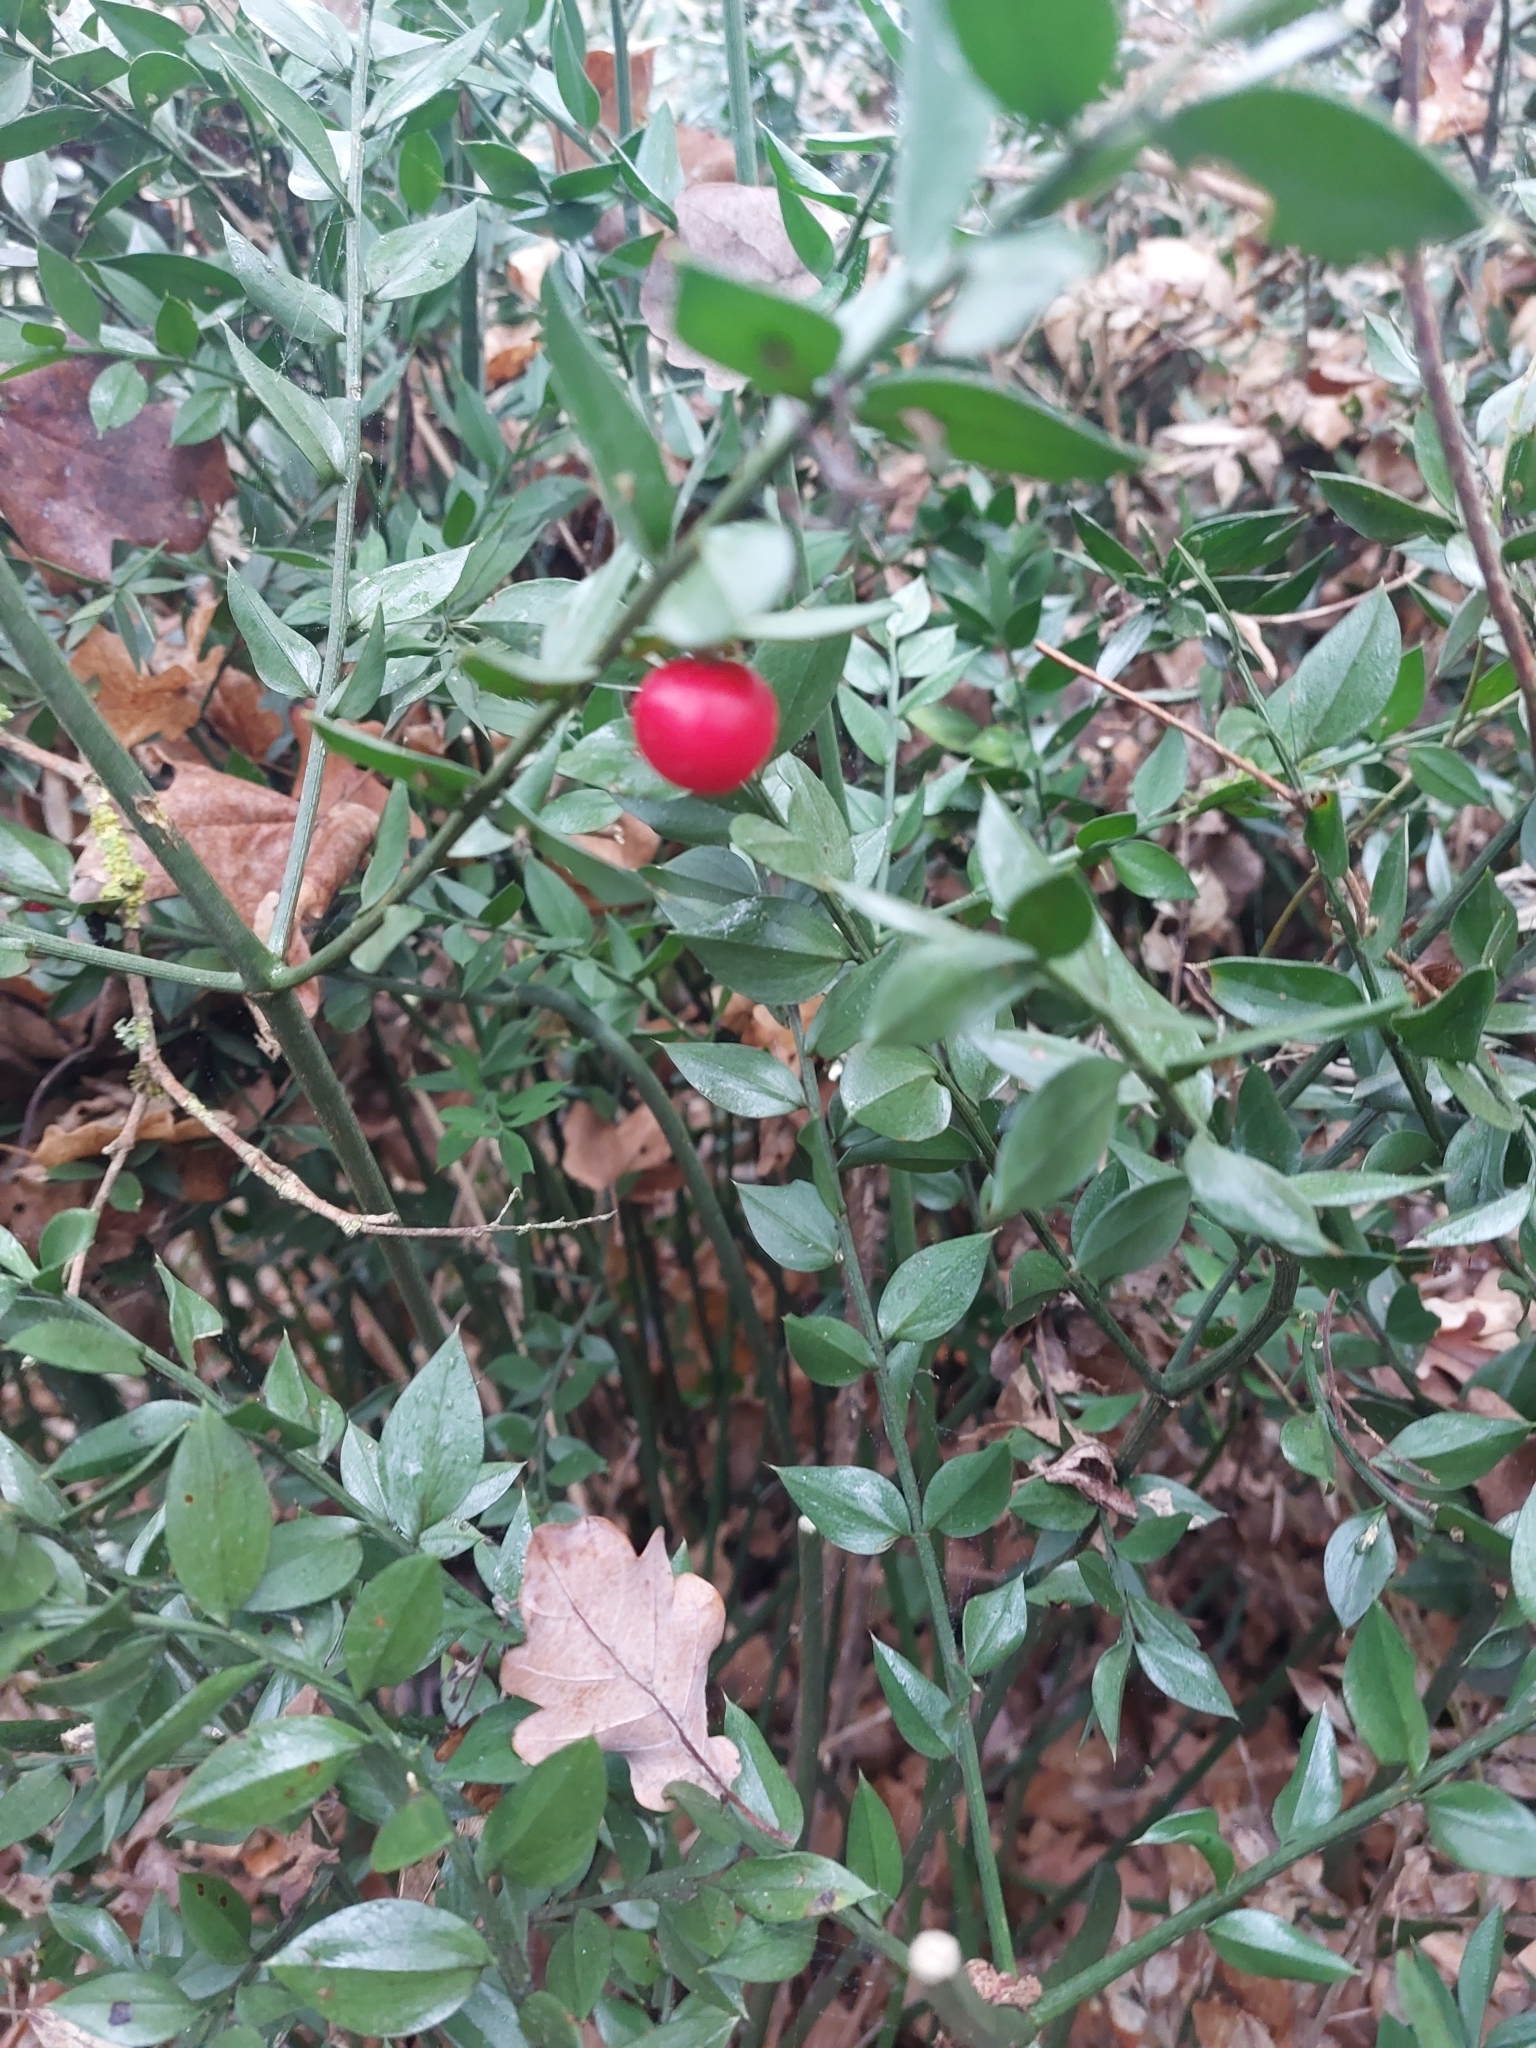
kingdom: Plantae
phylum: Tracheophyta
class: Liliopsida
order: Asparagales
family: Asparagaceae
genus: Ruscus
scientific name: Ruscus aculeatus
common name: Butcher's-broom
